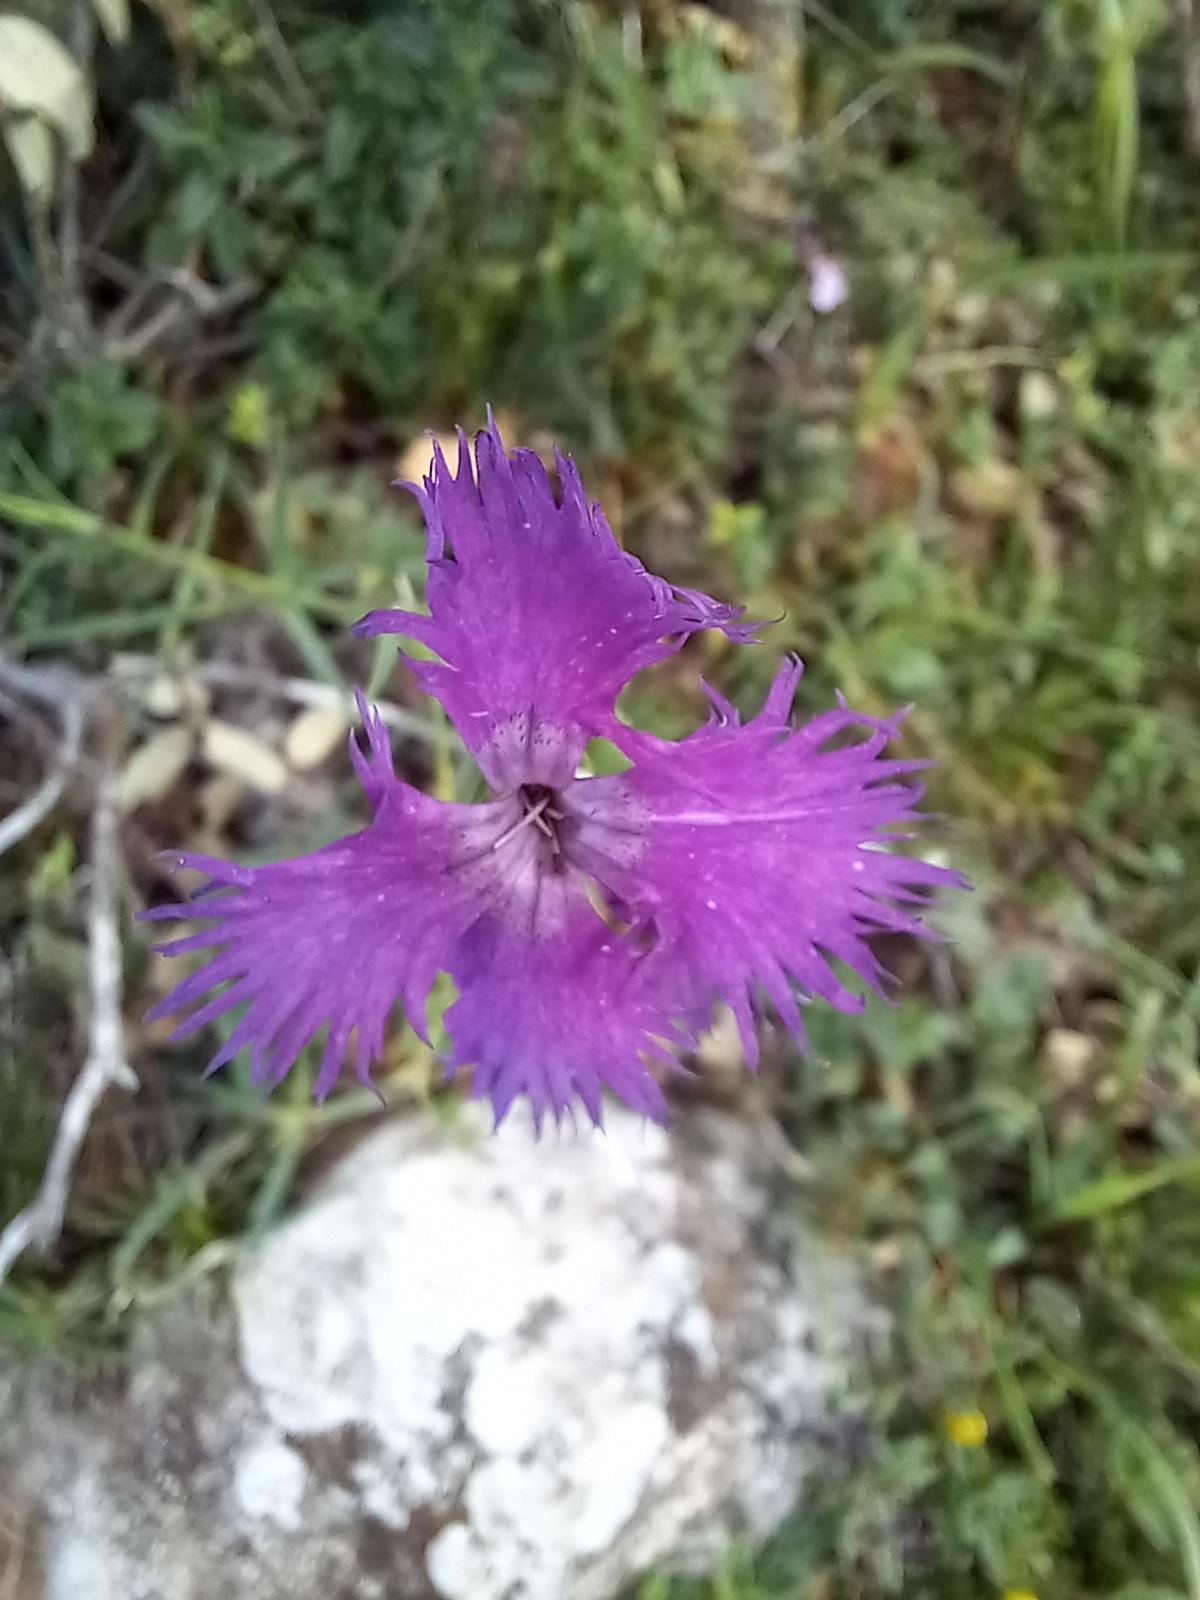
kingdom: Plantae
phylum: Tracheophyta
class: Magnoliopsida
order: Caryophyllales
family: Caryophyllaceae
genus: Dianthus
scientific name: Dianthus hyssopifolius
